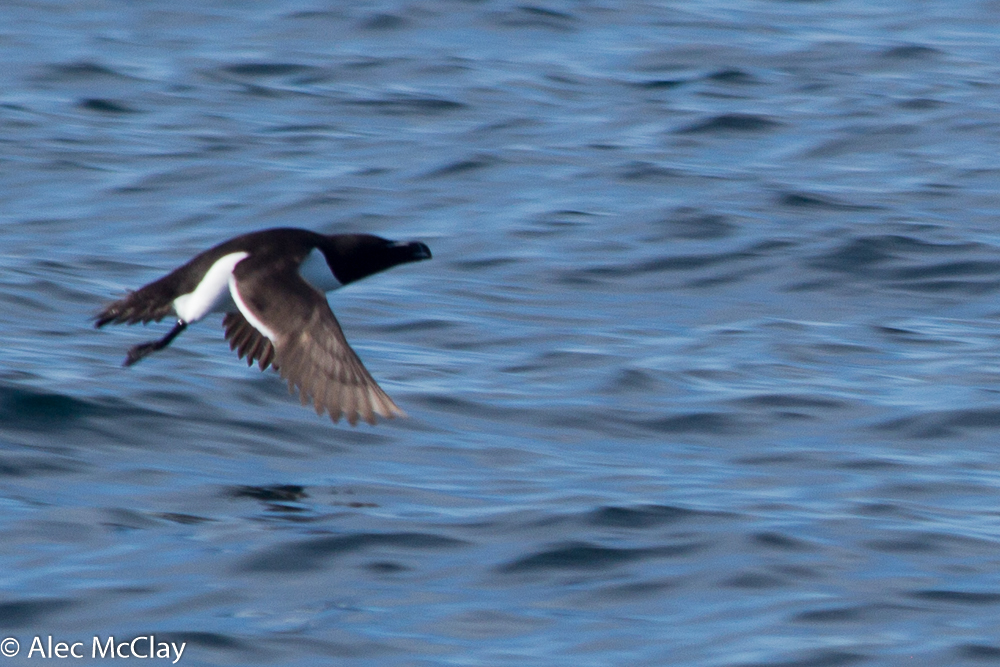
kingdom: Animalia
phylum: Chordata
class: Aves
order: Charadriiformes
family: Alcidae
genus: Alca
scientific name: Alca torda
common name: Razorbill
